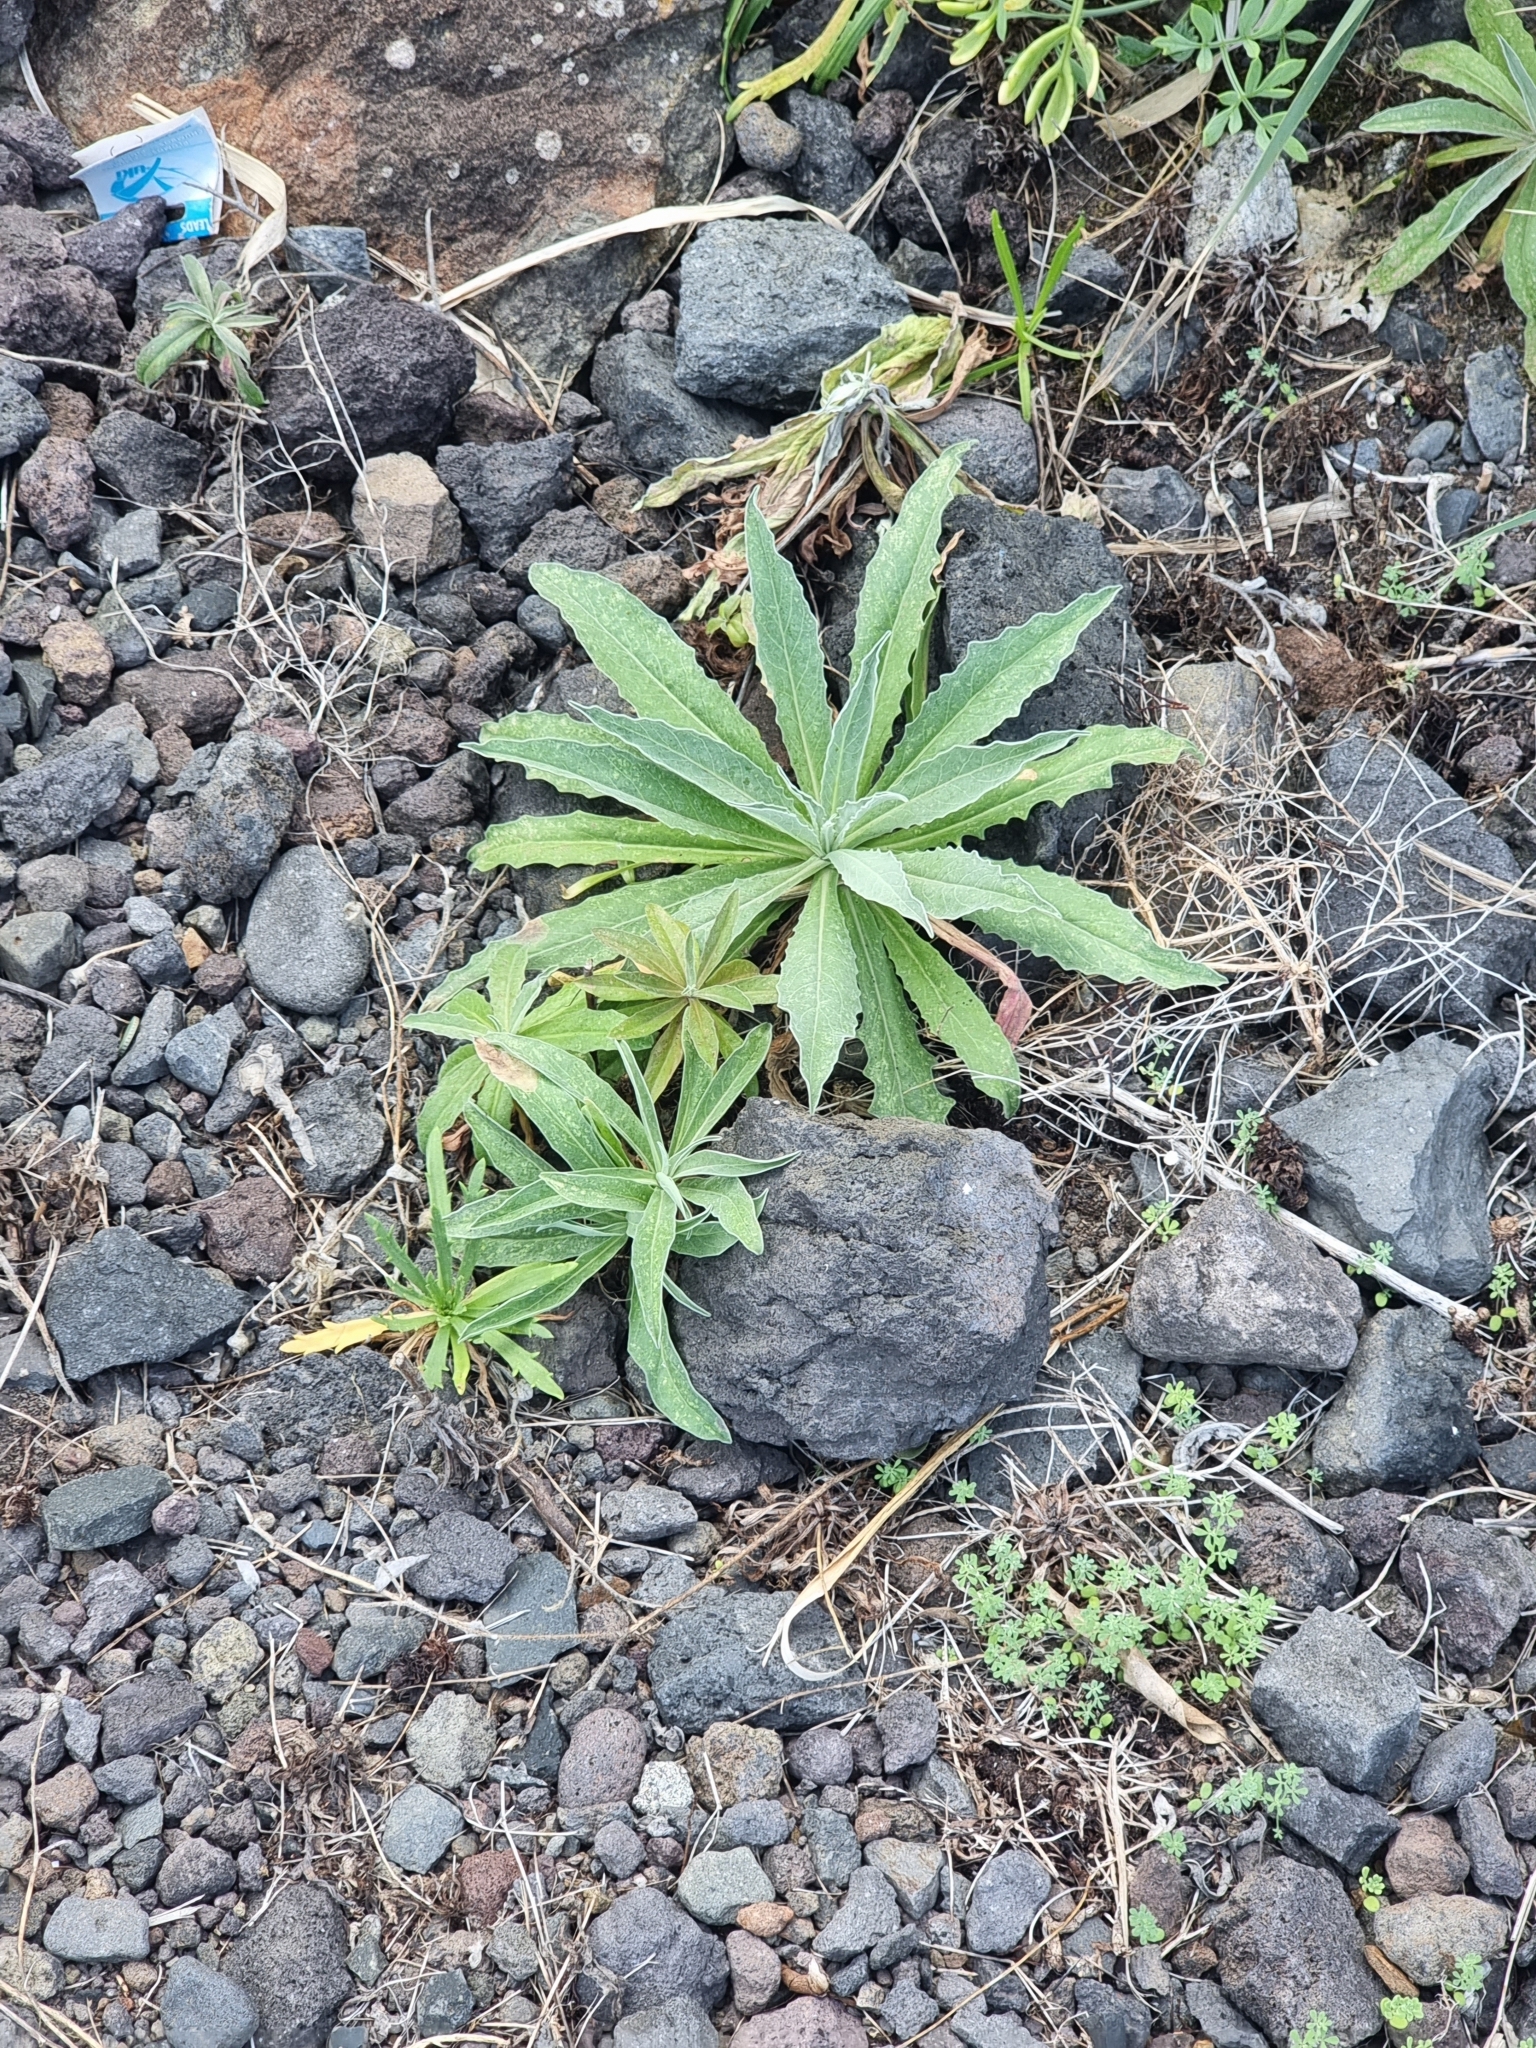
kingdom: Plantae
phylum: Tracheophyta
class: Magnoliopsida
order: Asterales
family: Asteraceae
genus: Andryala
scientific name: Andryala glandulosa
